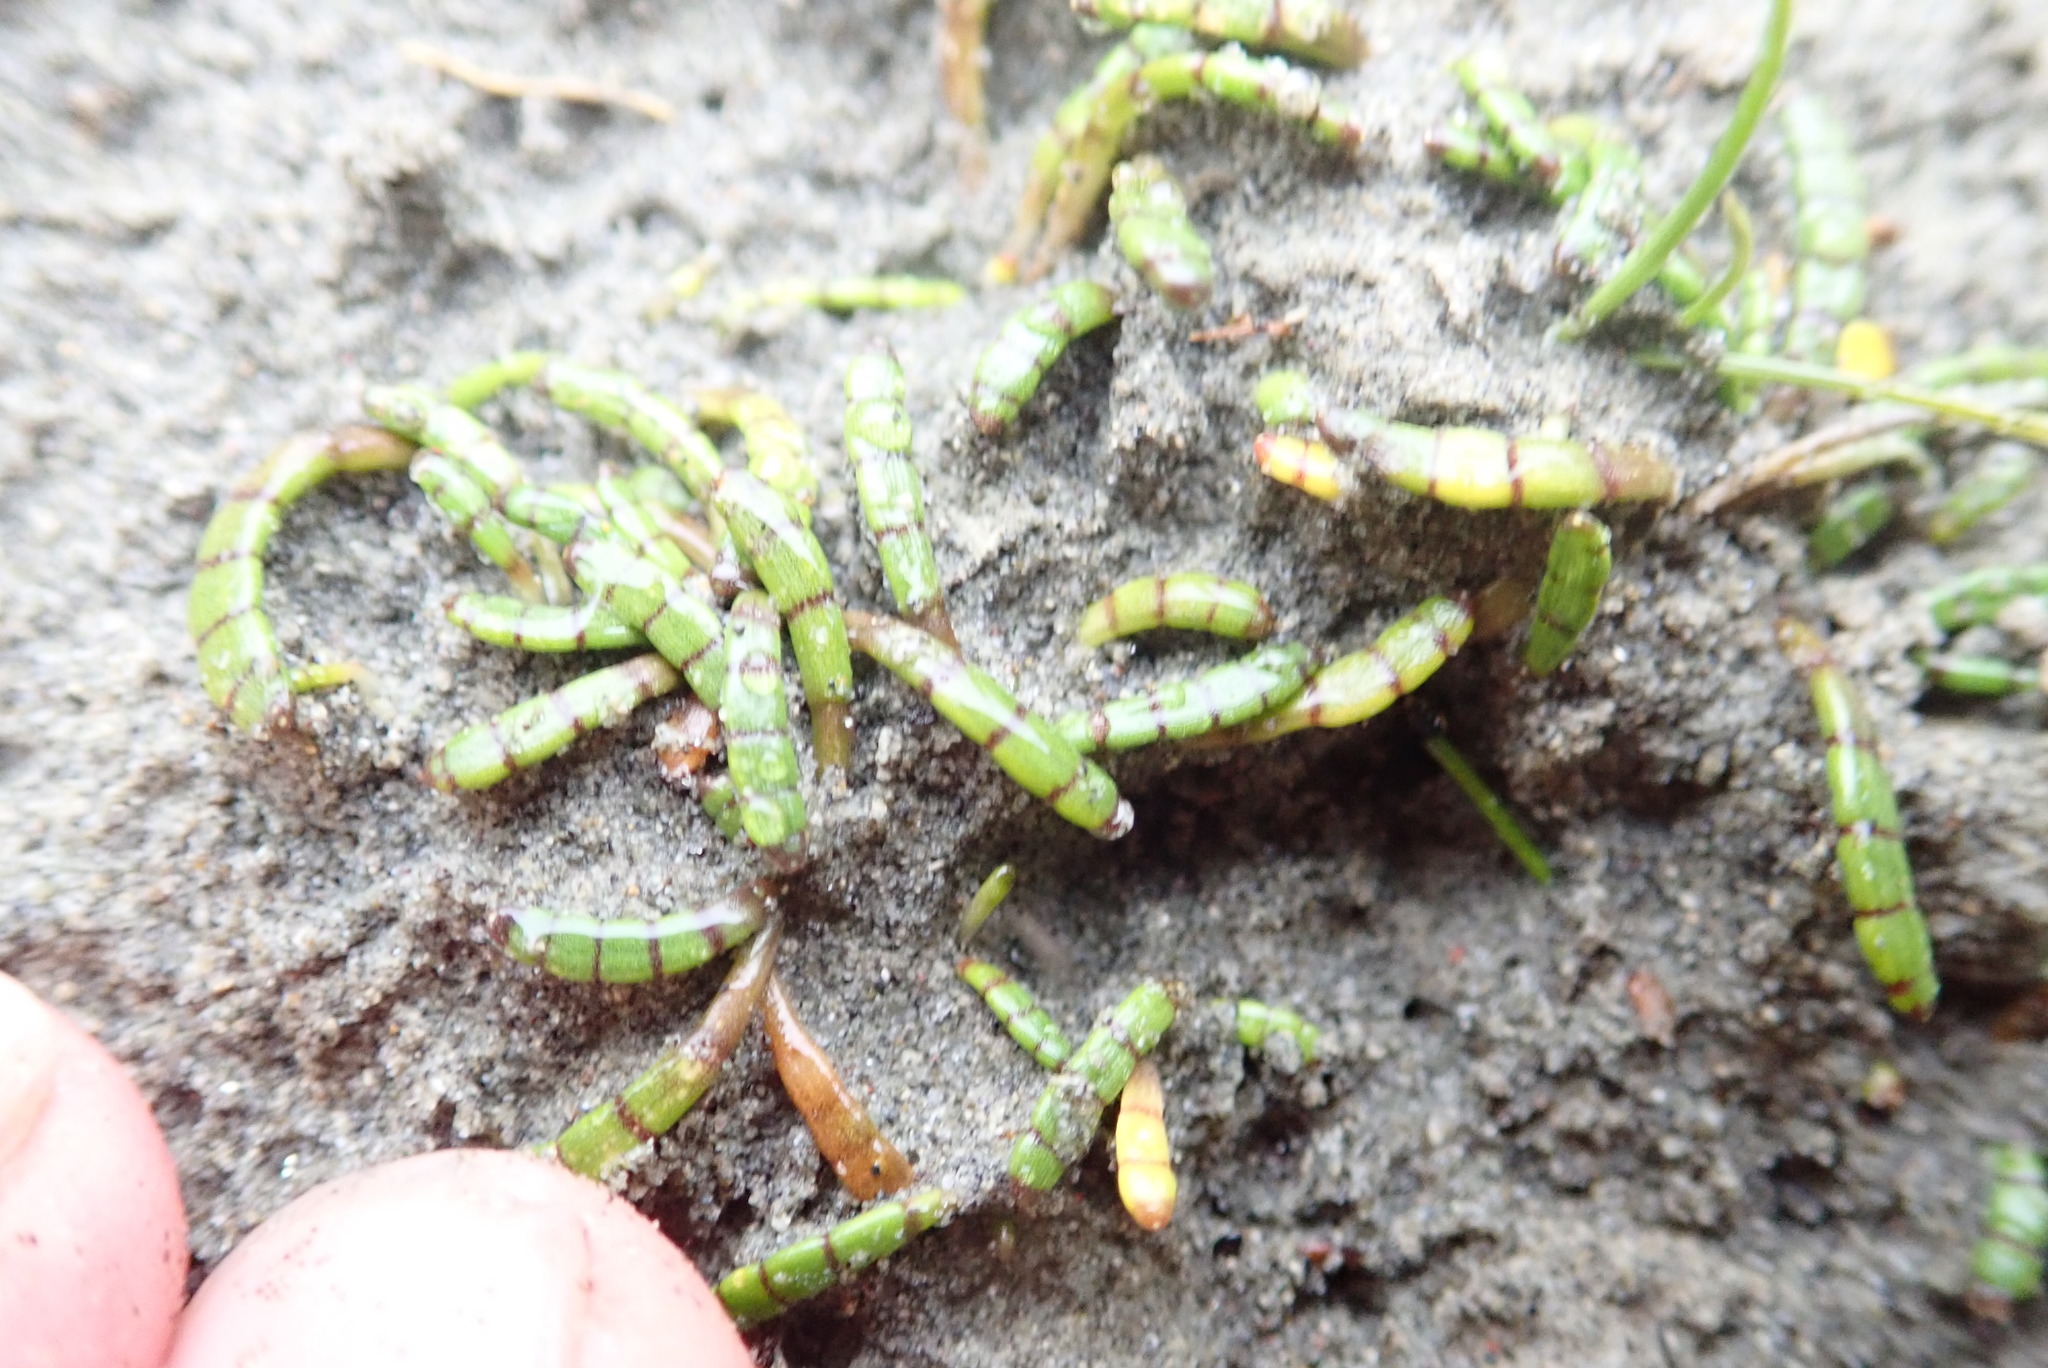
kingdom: Plantae
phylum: Tracheophyta
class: Magnoliopsida
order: Apiales
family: Apiaceae
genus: Lilaeopsis
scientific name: Lilaeopsis novae-zelandiae
